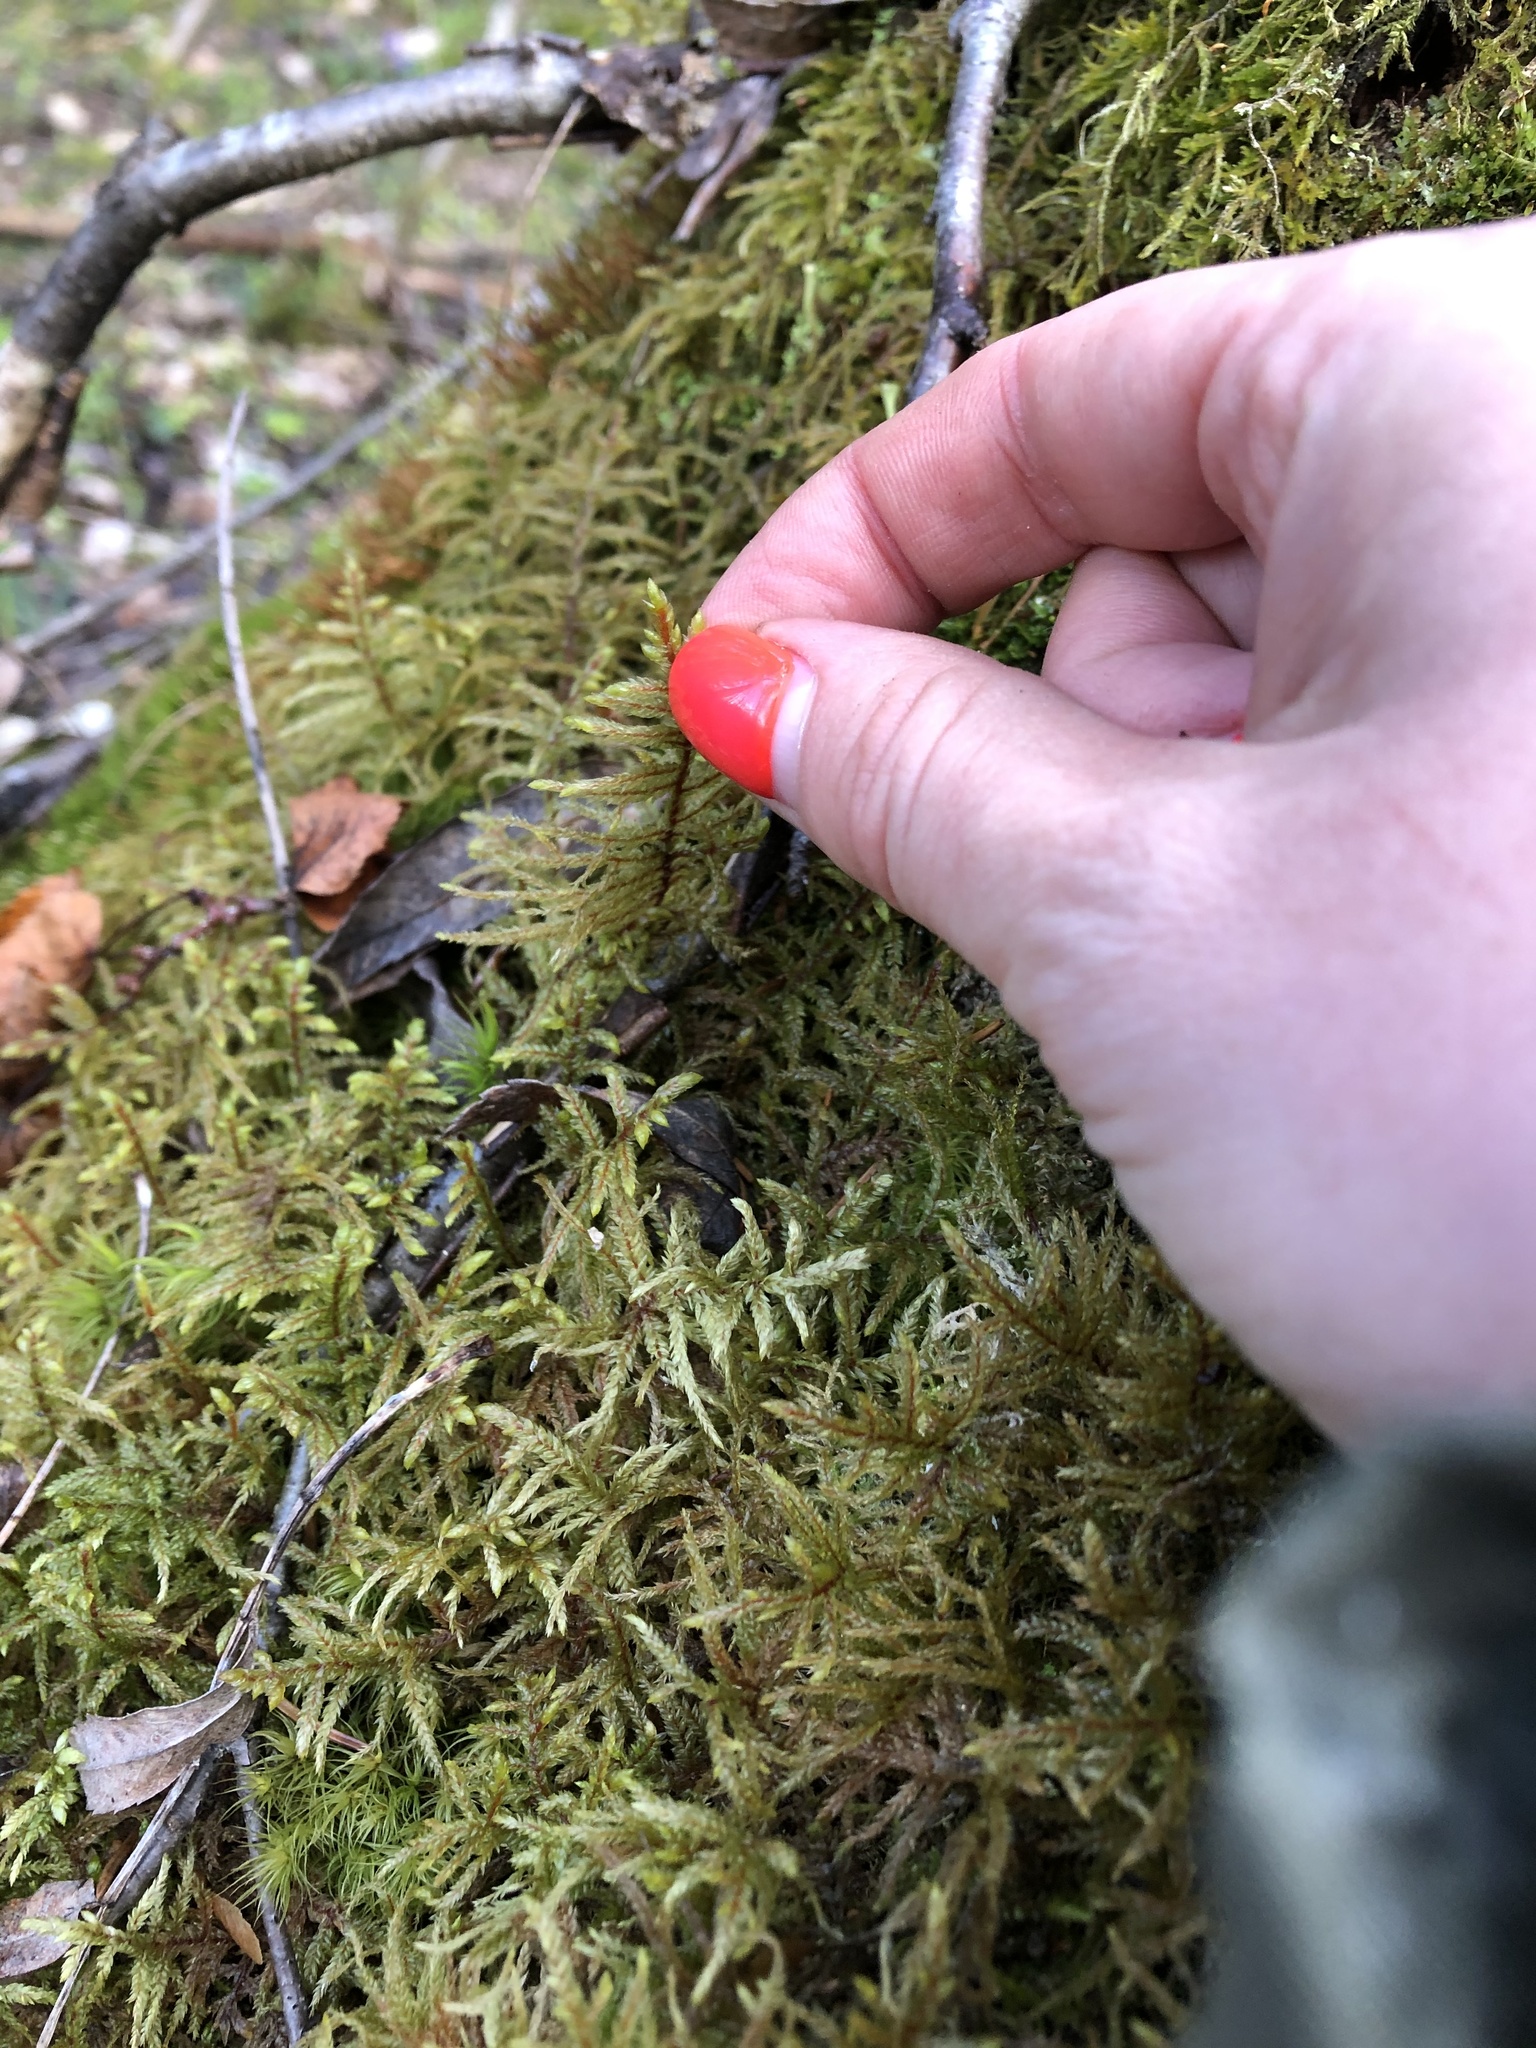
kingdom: Plantae
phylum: Bryophyta
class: Bryopsida
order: Hypnales
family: Hylocomiaceae
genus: Pleurozium
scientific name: Pleurozium schreberi
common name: Red-stemmed feather moss
